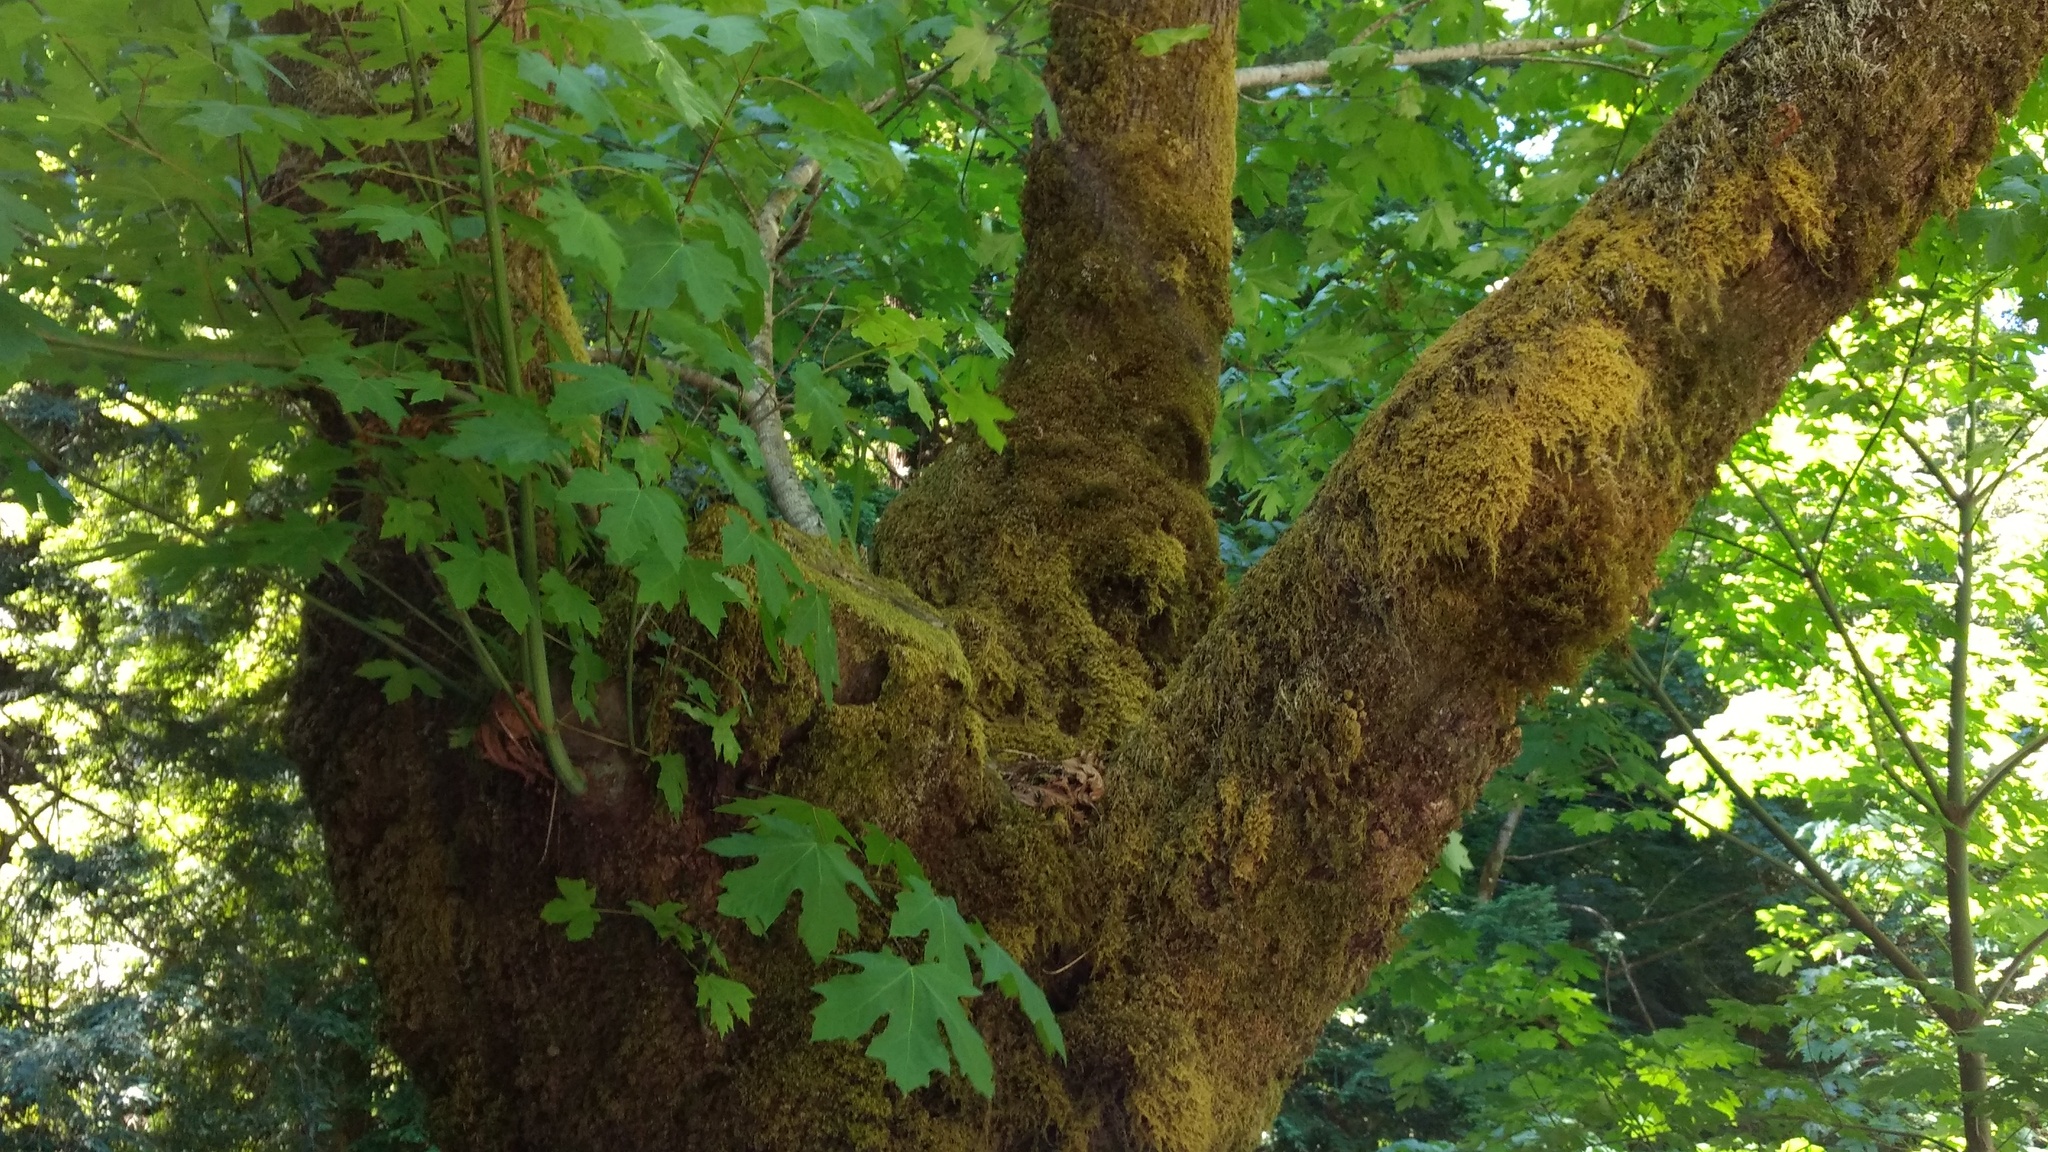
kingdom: Plantae
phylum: Tracheophyta
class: Magnoliopsida
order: Sapindales
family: Sapindaceae
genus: Acer
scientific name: Acer macrophyllum
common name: Oregon maple
